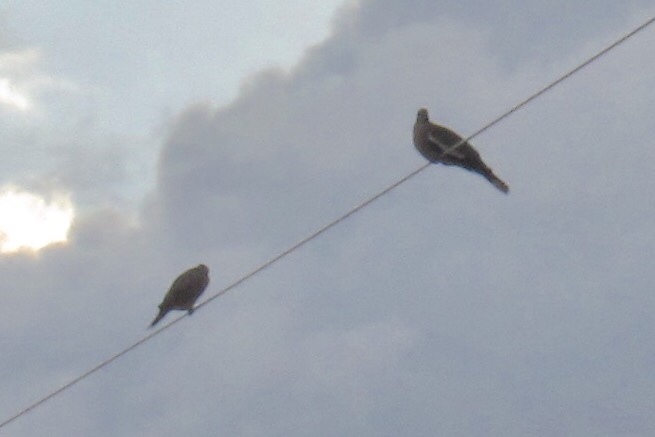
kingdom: Animalia
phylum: Chordata
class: Aves
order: Columbiformes
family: Columbidae
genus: Zenaida
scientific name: Zenaida asiatica
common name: White-winged dove
